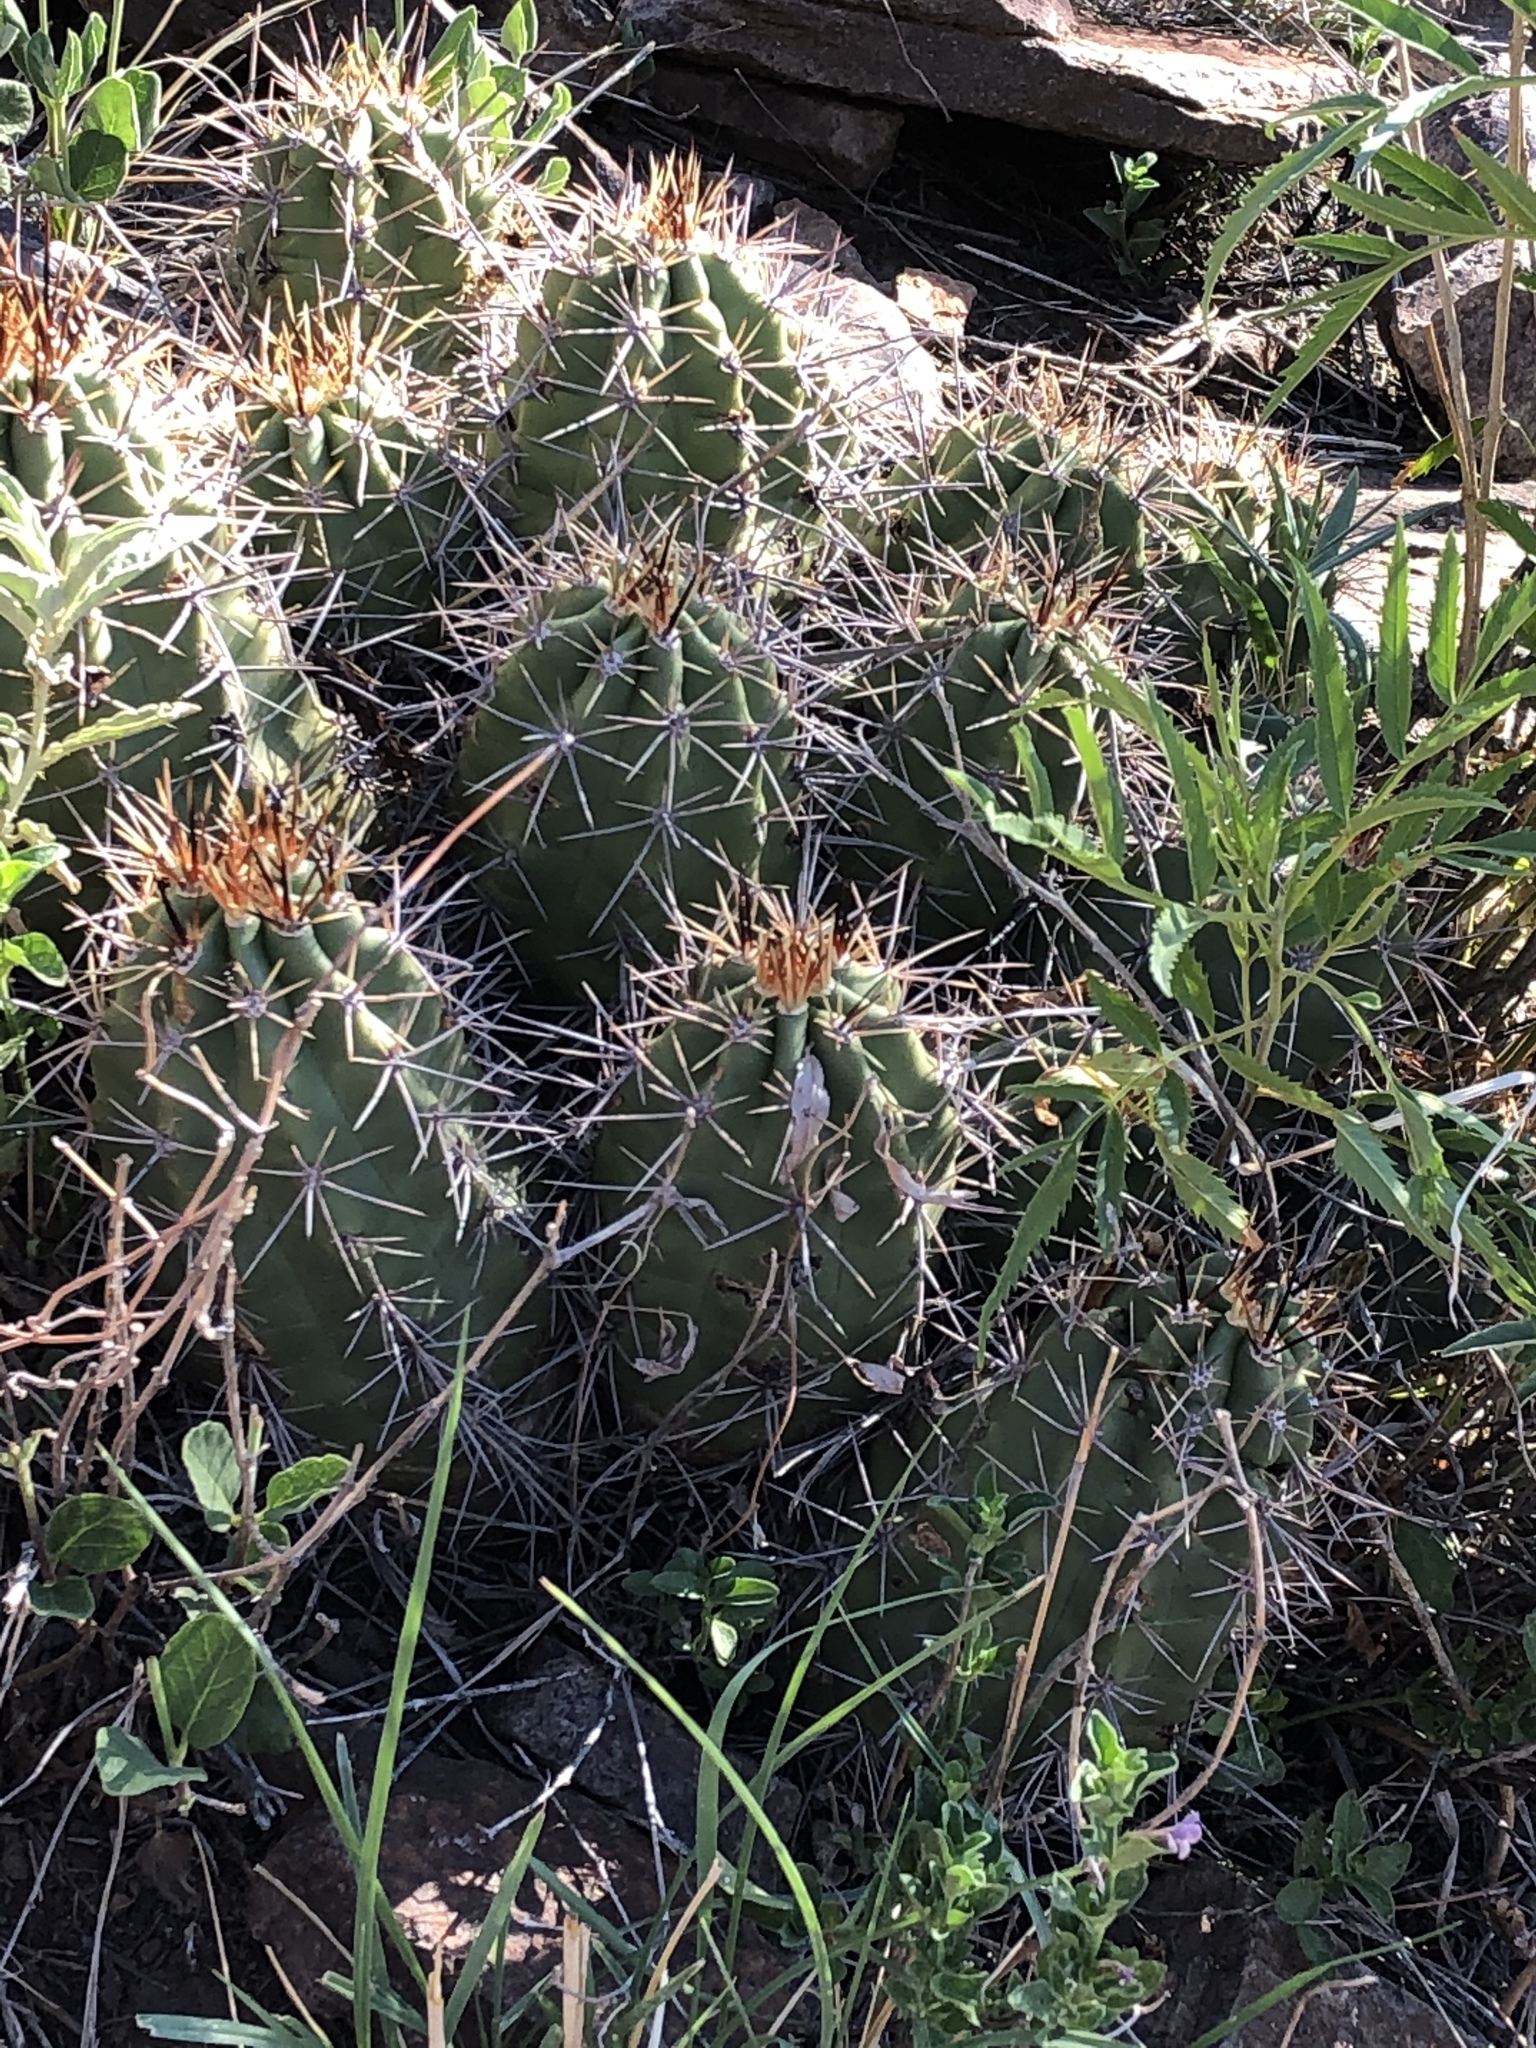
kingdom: Plantae
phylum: Tracheophyta
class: Magnoliopsida
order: Caryophyllales
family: Cactaceae
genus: Echinocereus
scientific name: Echinocereus coccineus
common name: Scarlet hedgehog cactus
